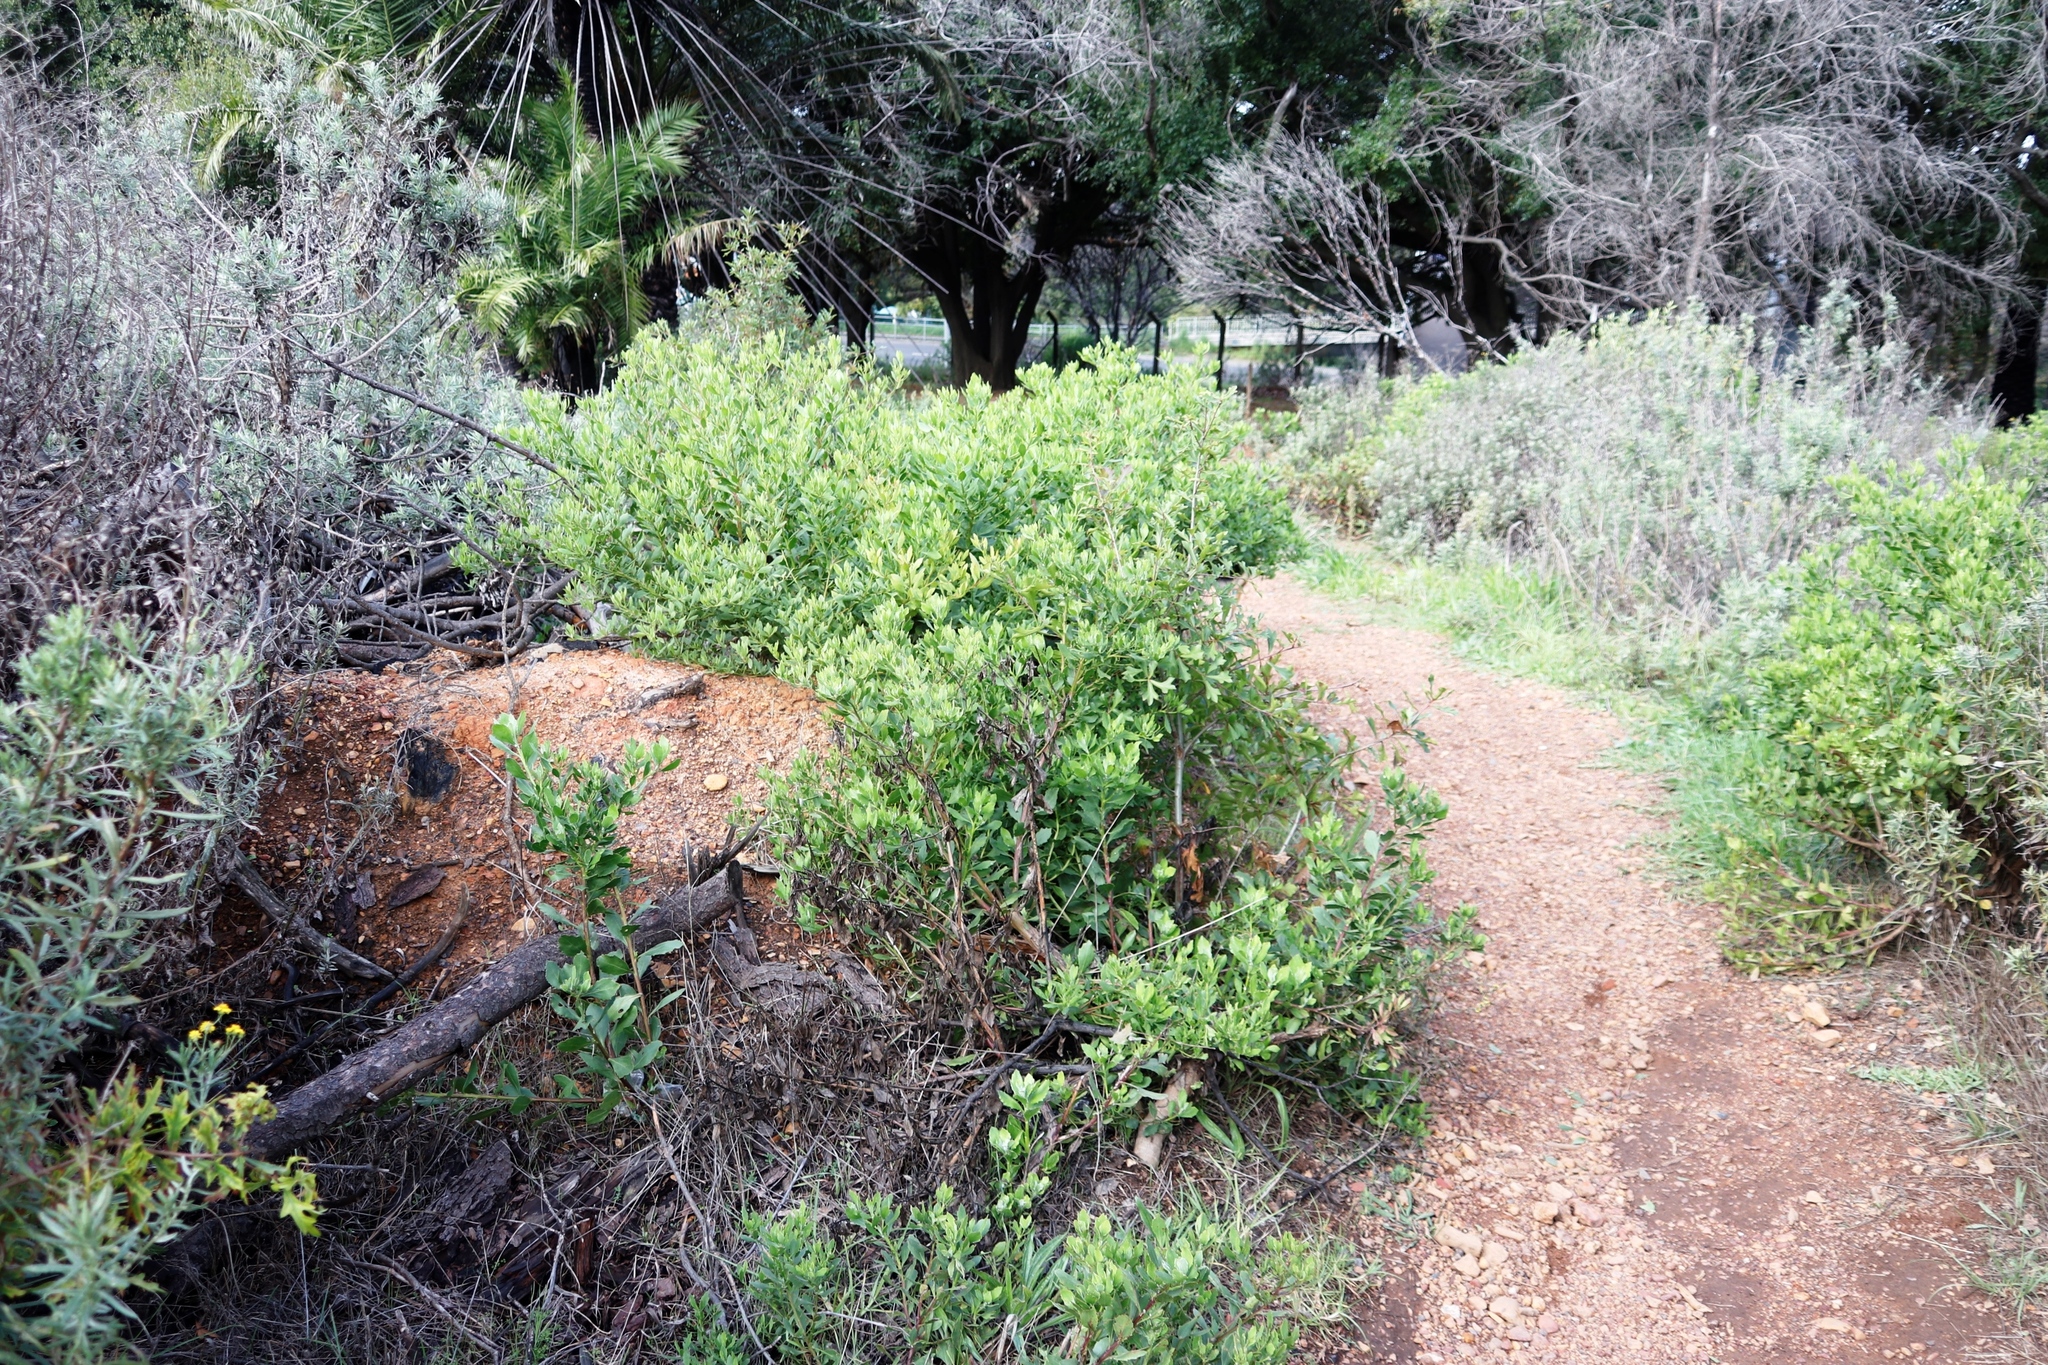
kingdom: Plantae
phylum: Tracheophyta
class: Magnoliopsida
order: Asterales
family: Asteraceae
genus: Osteospermum
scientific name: Osteospermum moniliferum
